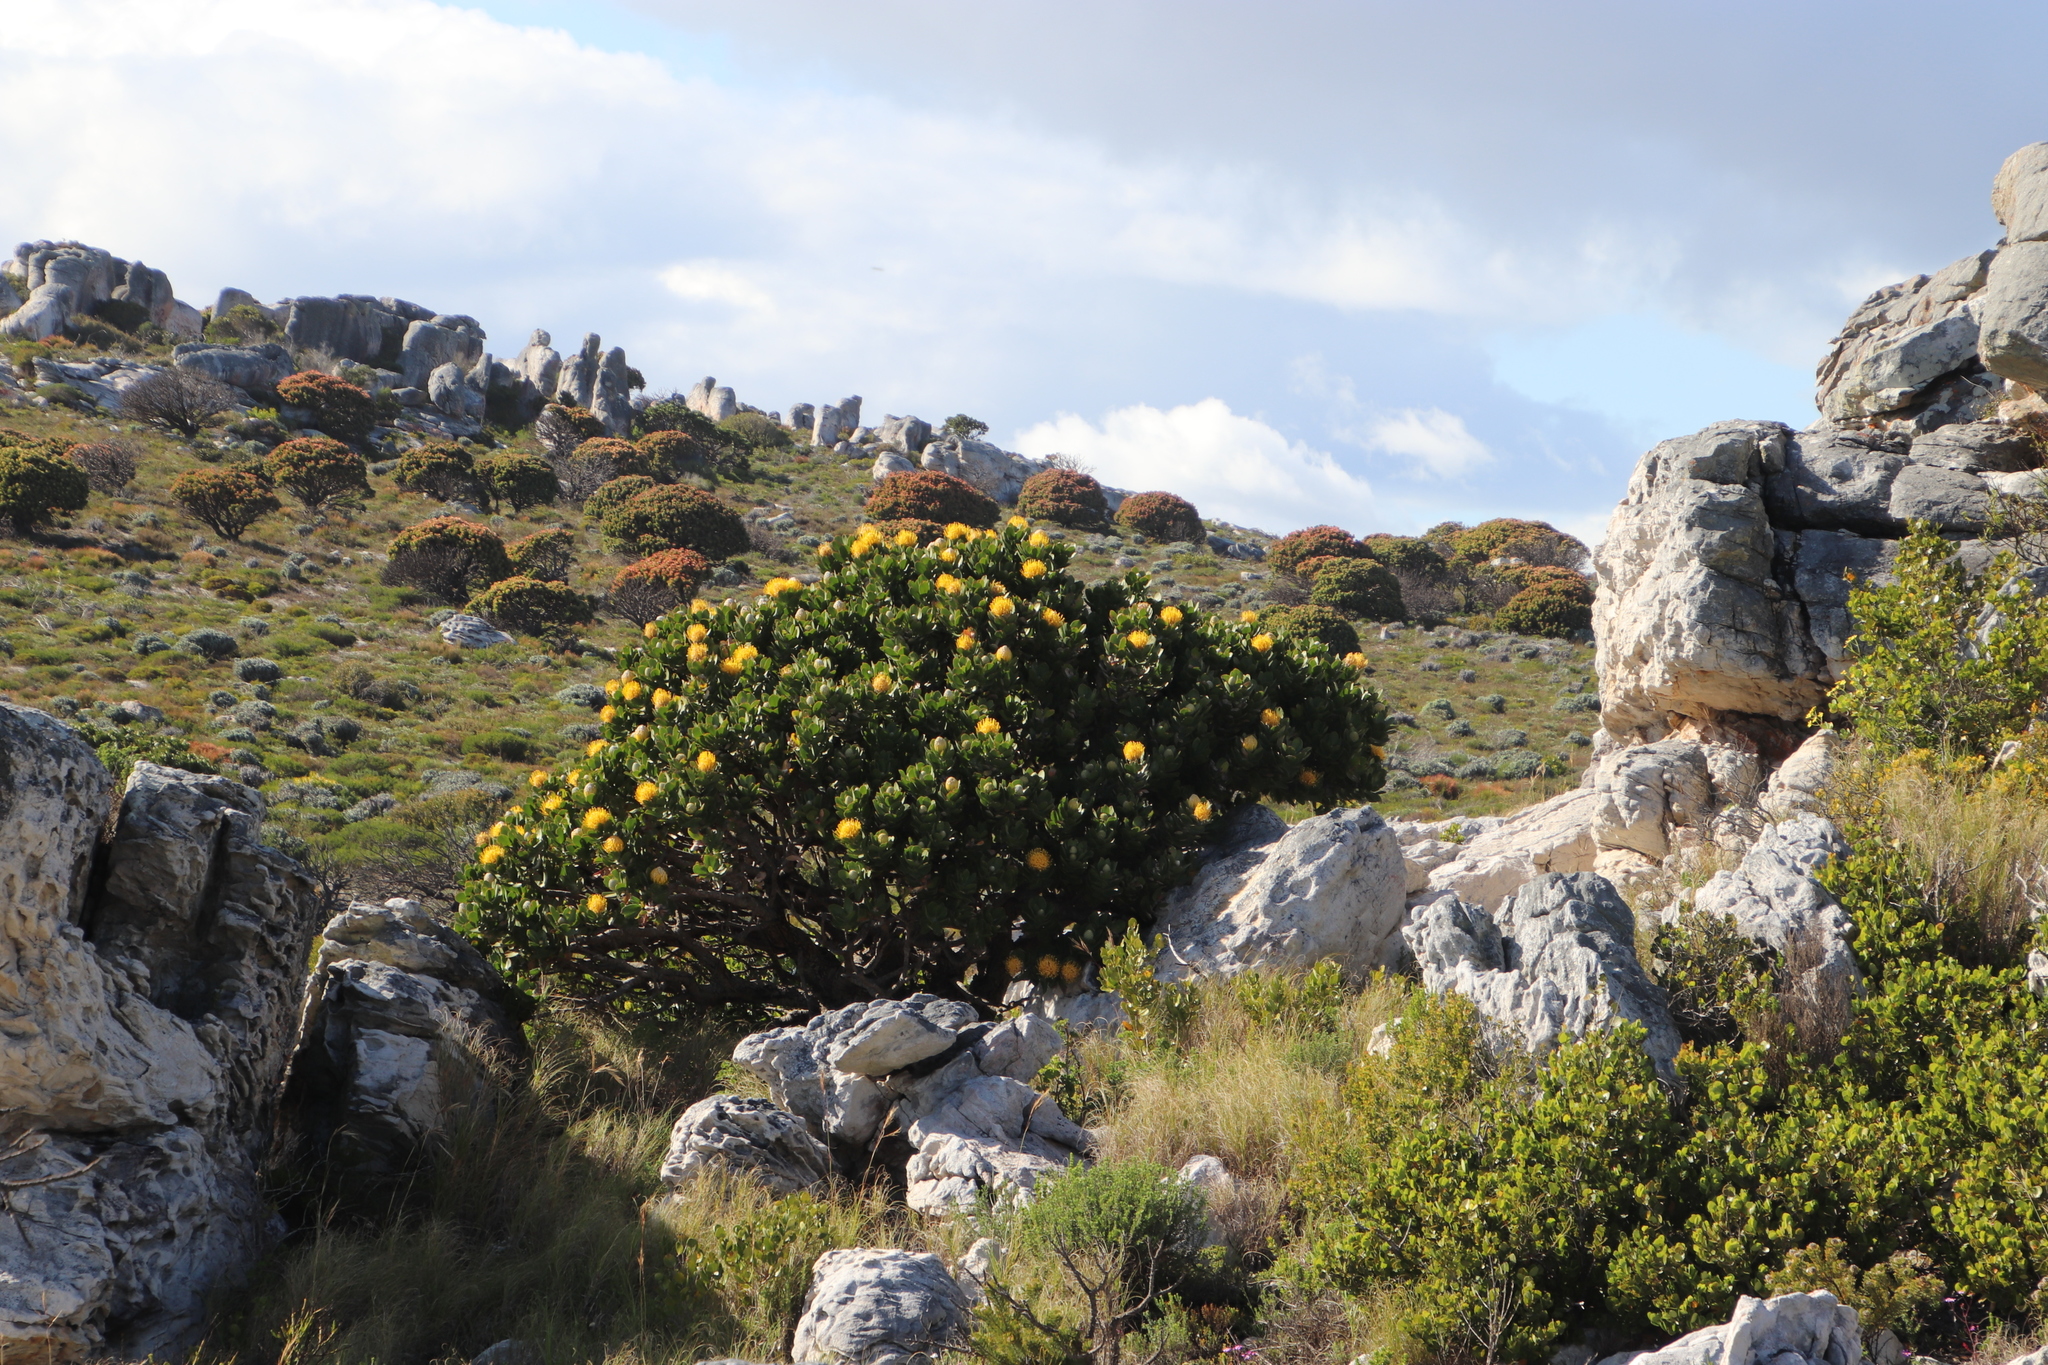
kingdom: Plantae
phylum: Tracheophyta
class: Magnoliopsida
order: Proteales
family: Proteaceae
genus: Leucospermum
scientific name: Leucospermum conocarpodendron
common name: Tree pincushion
